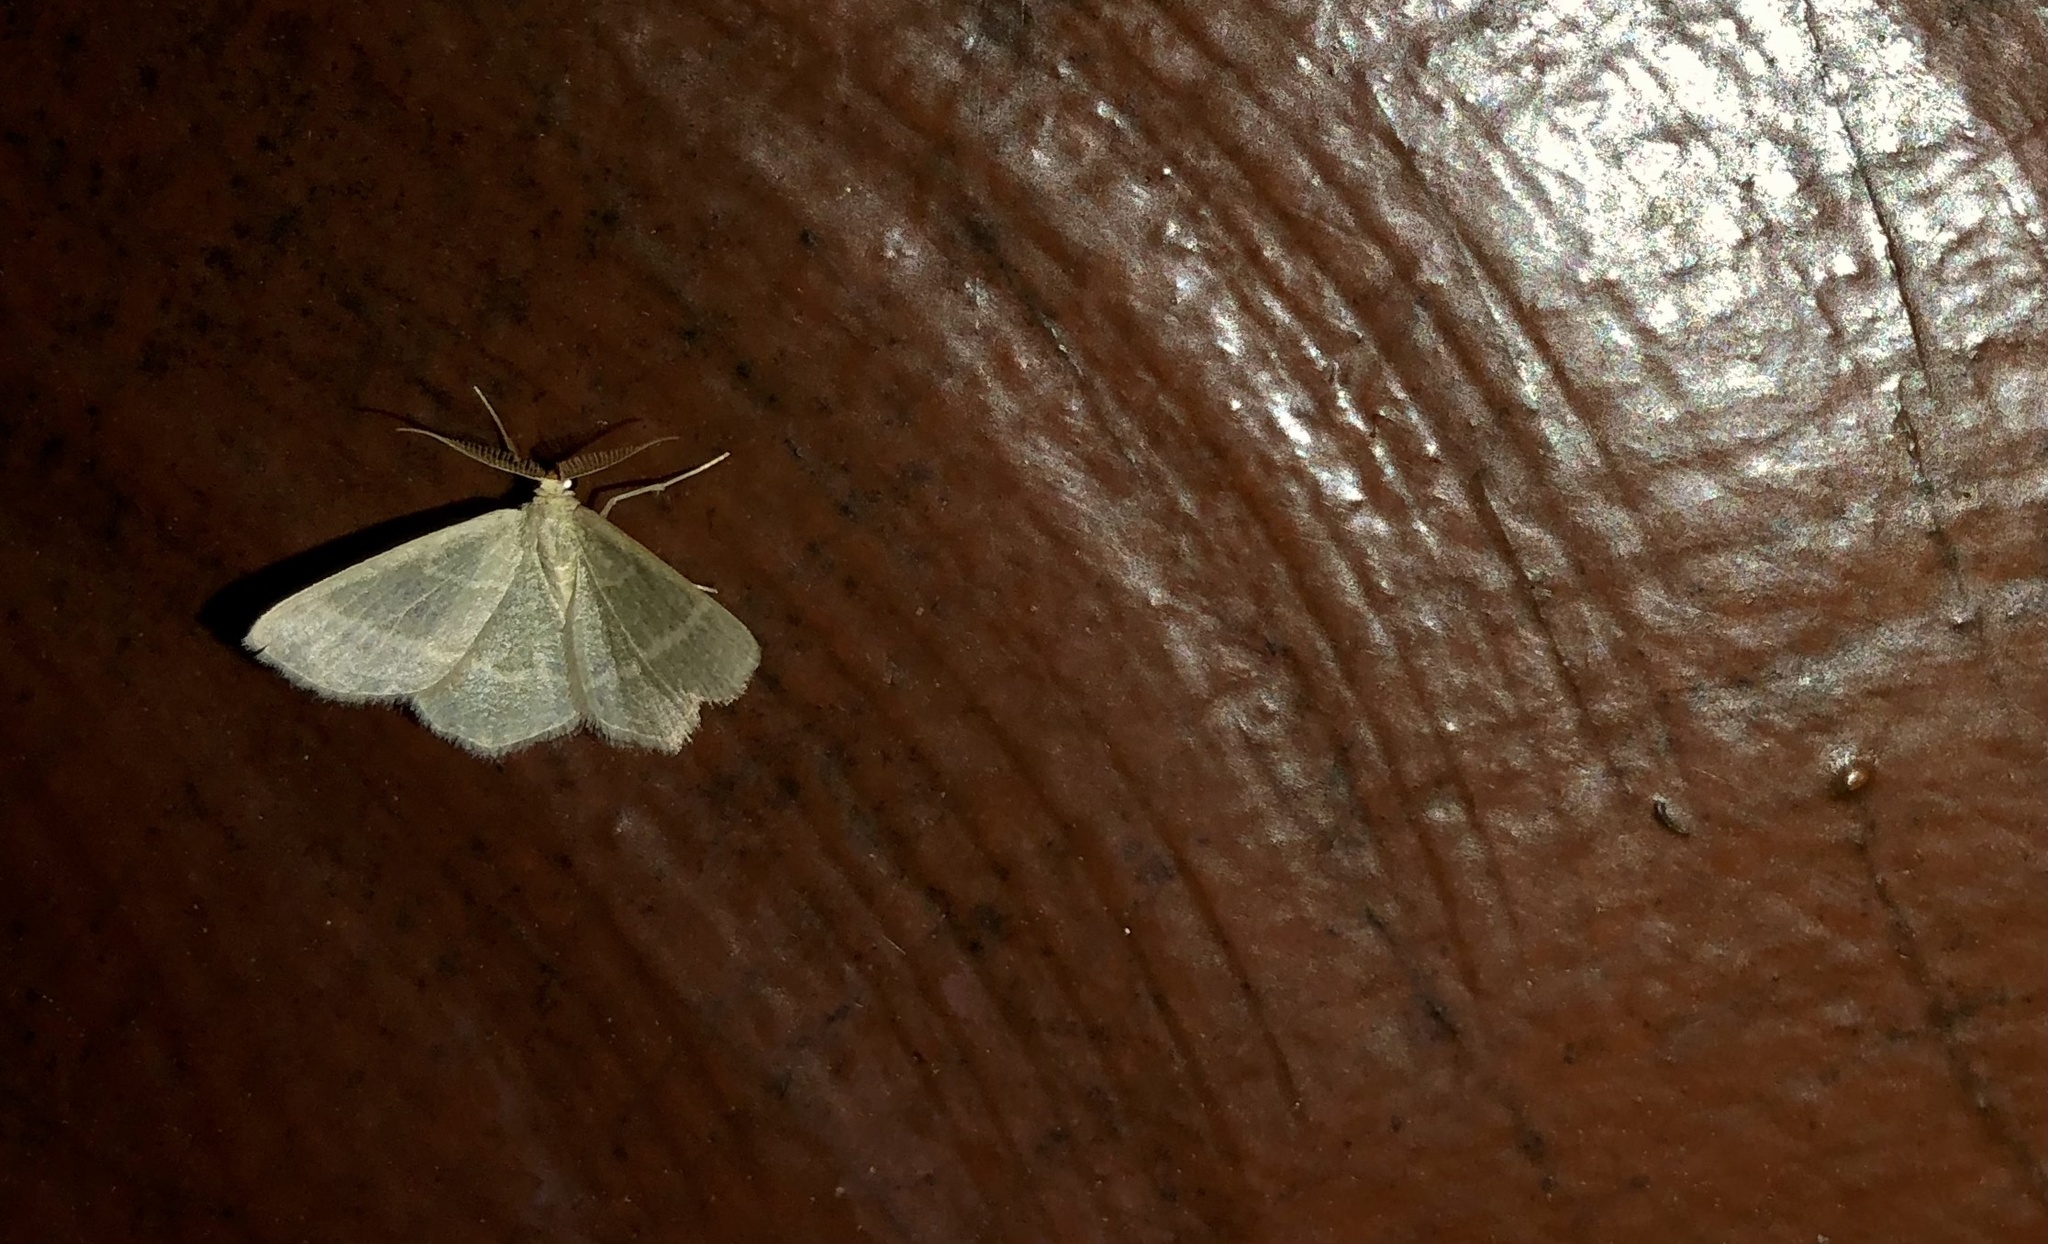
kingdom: Animalia
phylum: Arthropoda
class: Insecta
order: Lepidoptera
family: Geometridae
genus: Chlorochlamys
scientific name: Chlorochlamys chloroleucaria
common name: Blackberry looper
